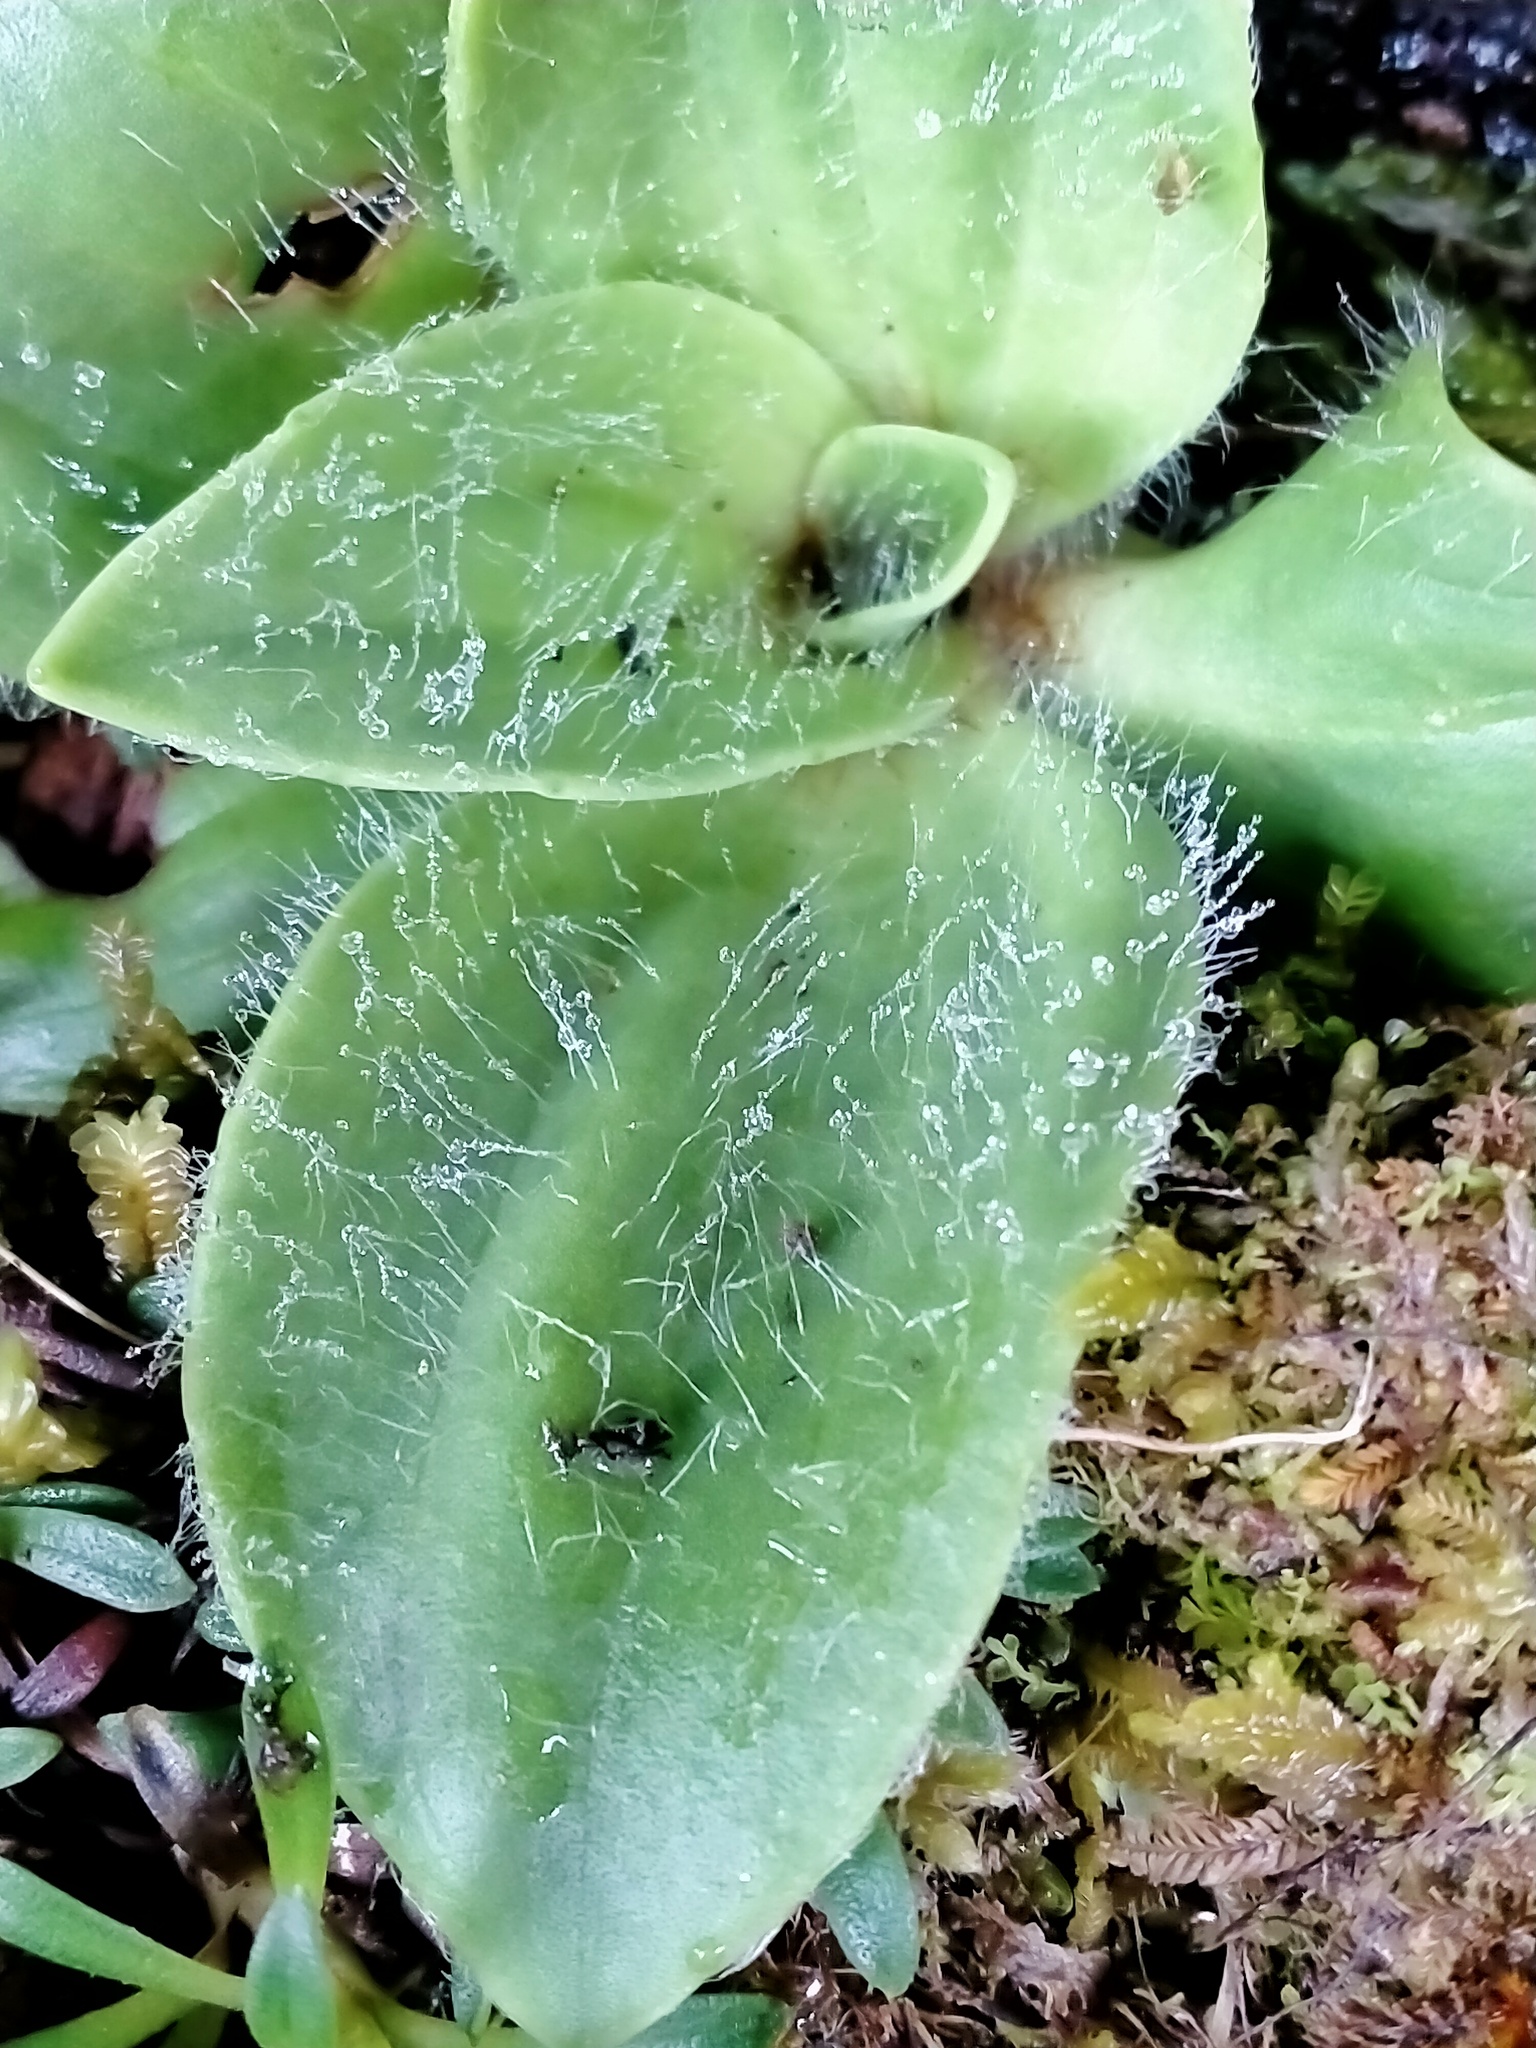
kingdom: Plantae
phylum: Tracheophyta
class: Magnoliopsida
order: Lamiales
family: Plantaginaceae
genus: Plantago
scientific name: Plantago aucklandica
